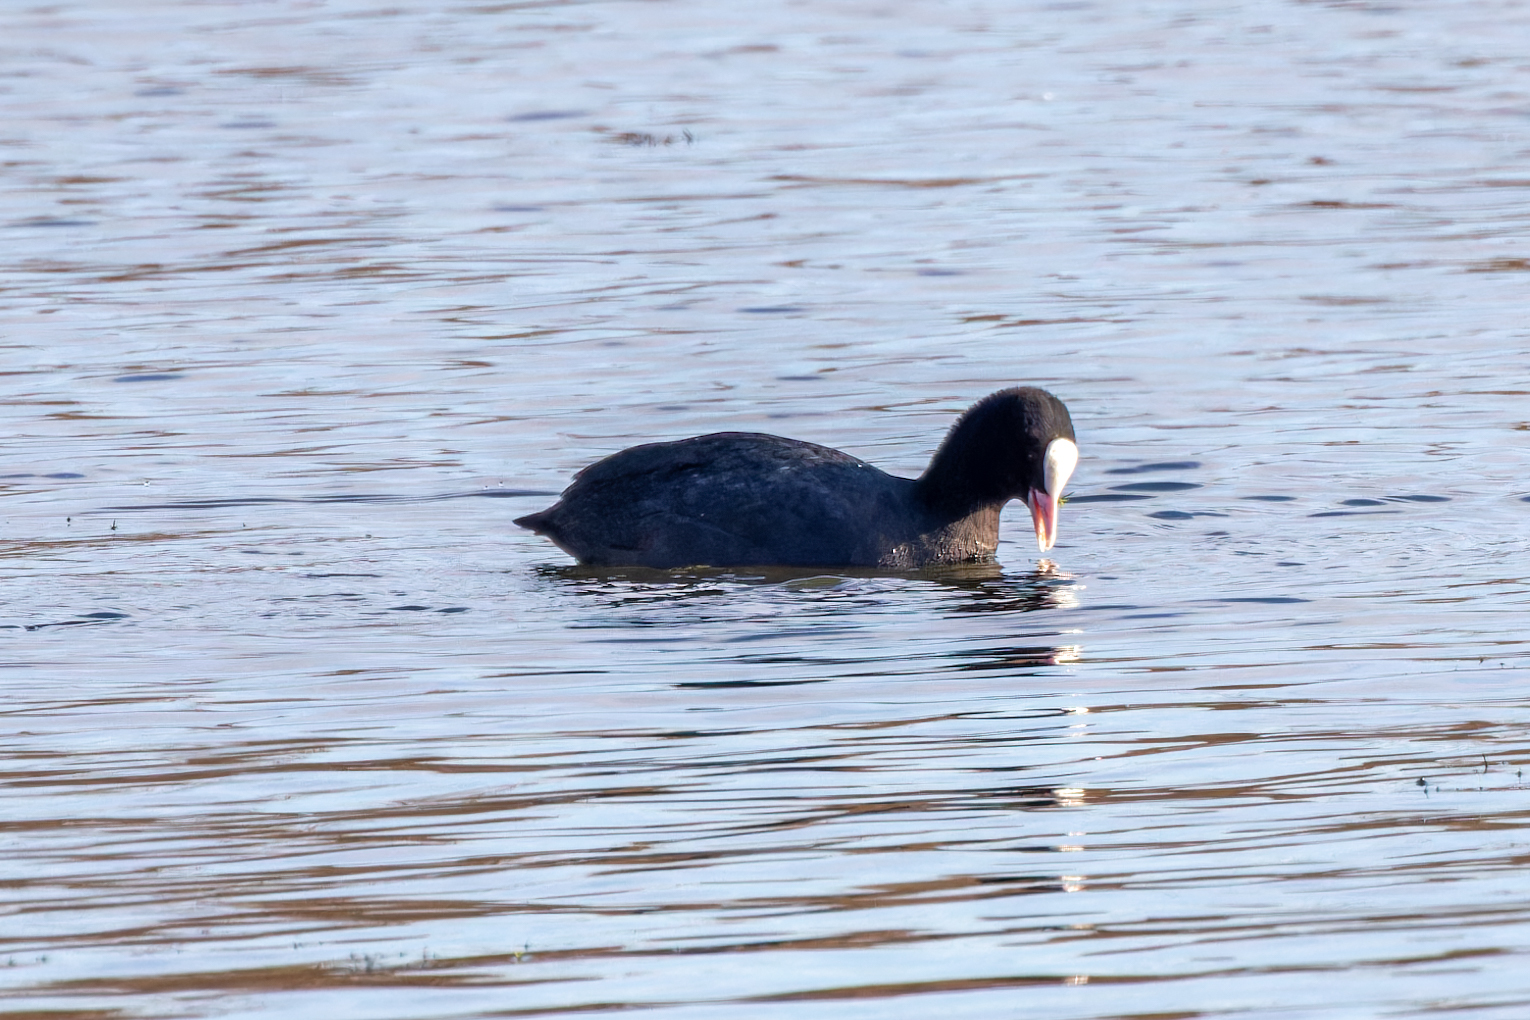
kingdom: Animalia
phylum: Chordata
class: Aves
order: Gruiformes
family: Rallidae
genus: Fulica
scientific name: Fulica atra
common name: Eurasian coot
